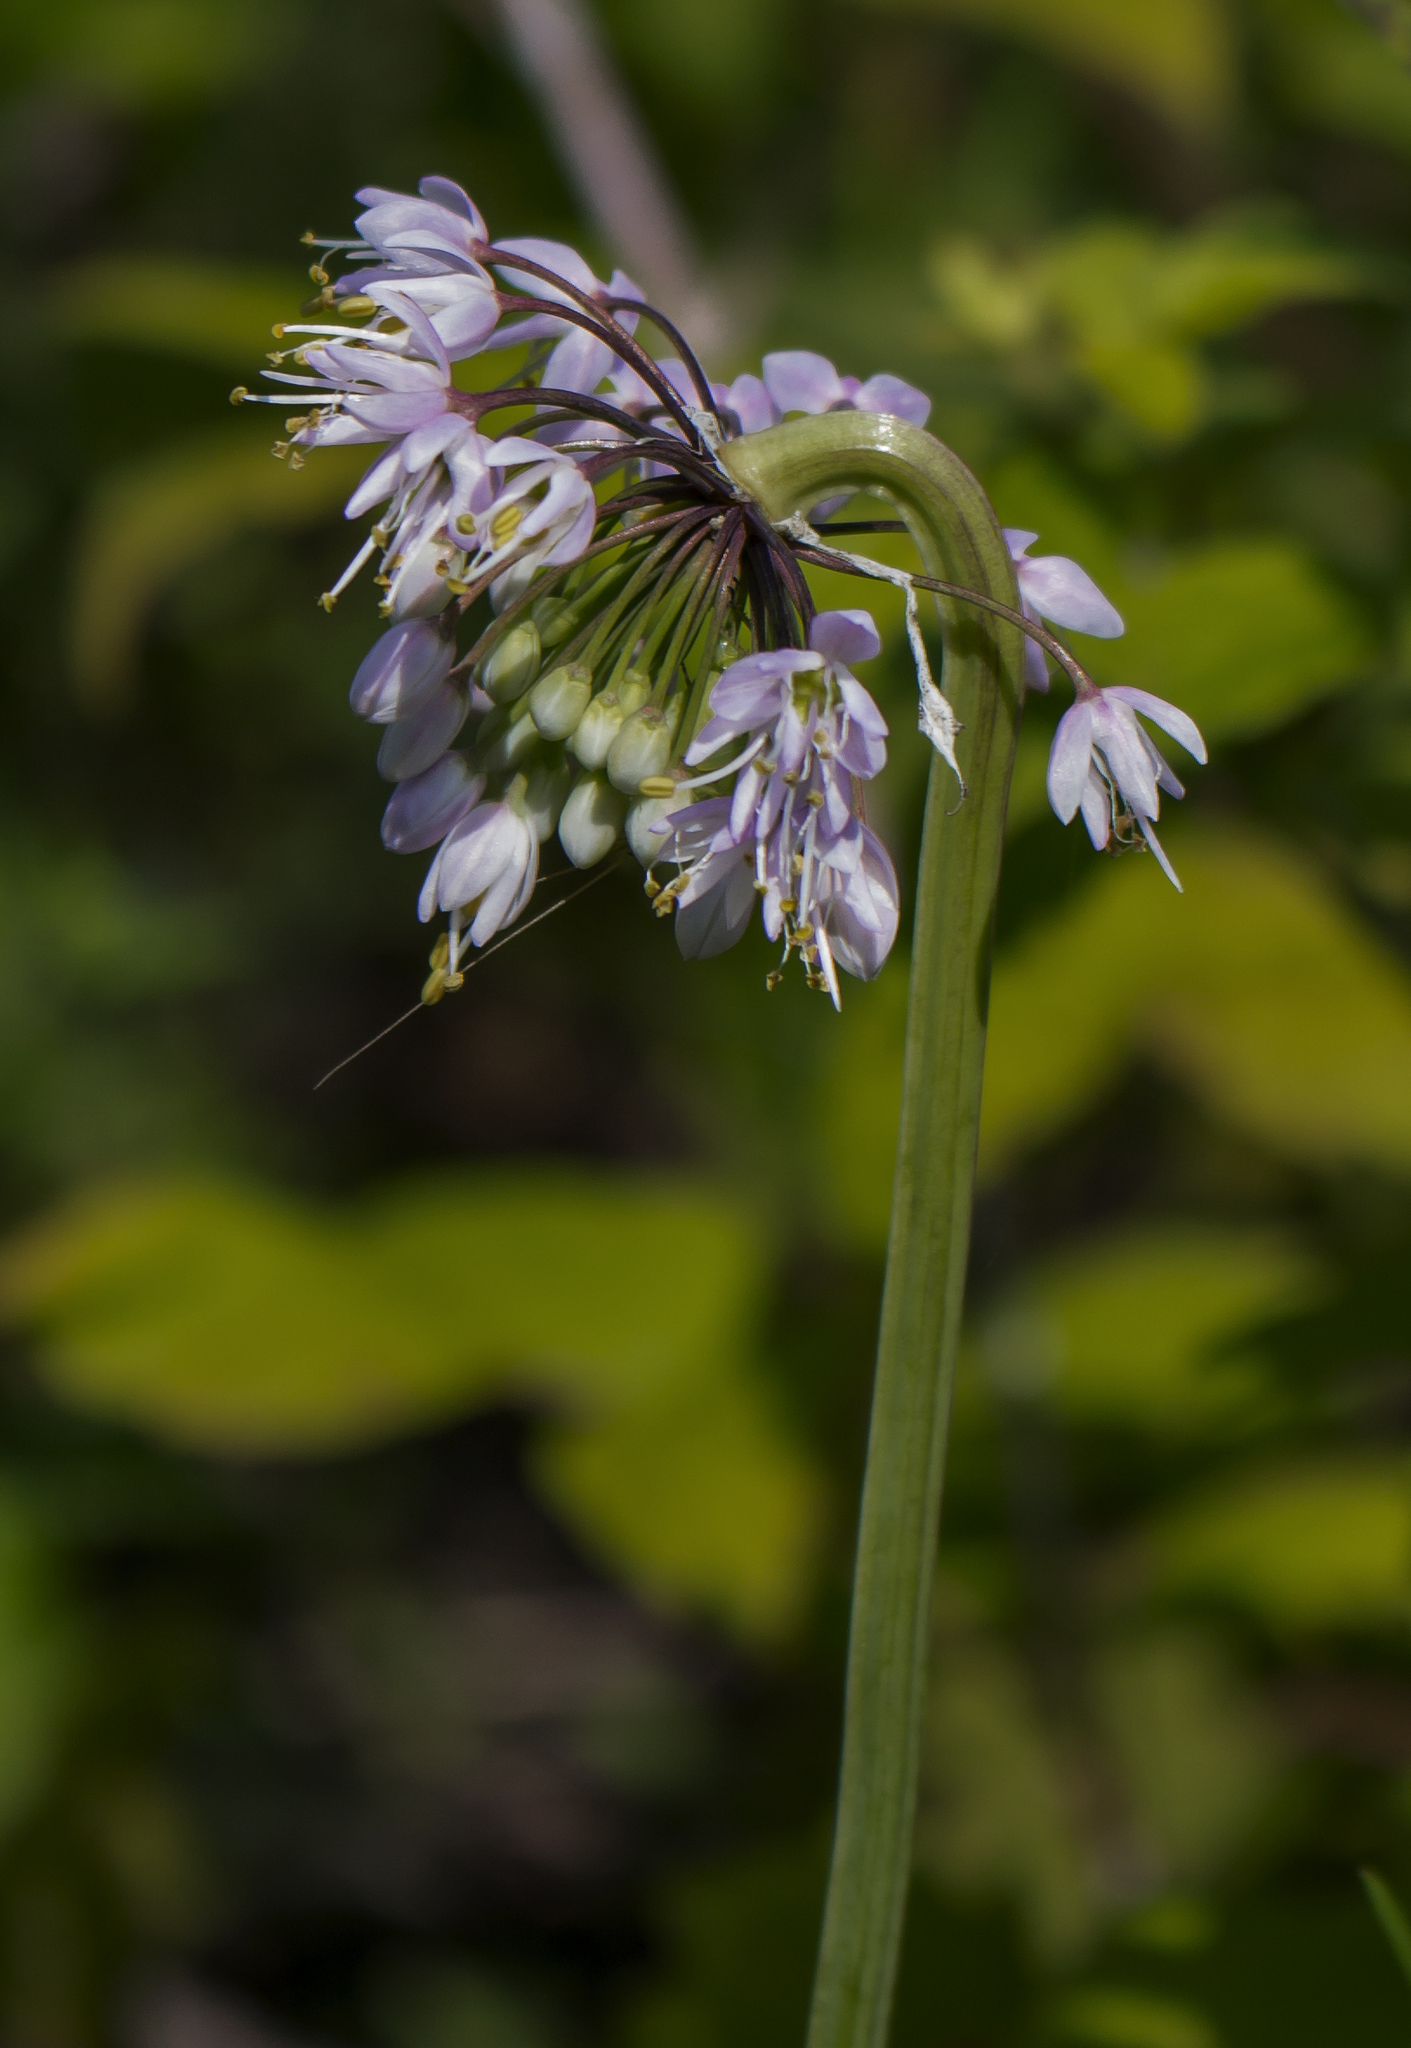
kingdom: Plantae
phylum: Tracheophyta
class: Liliopsida
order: Asparagales
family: Amaryllidaceae
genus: Allium
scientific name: Allium cernuum
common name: Nodding onion
